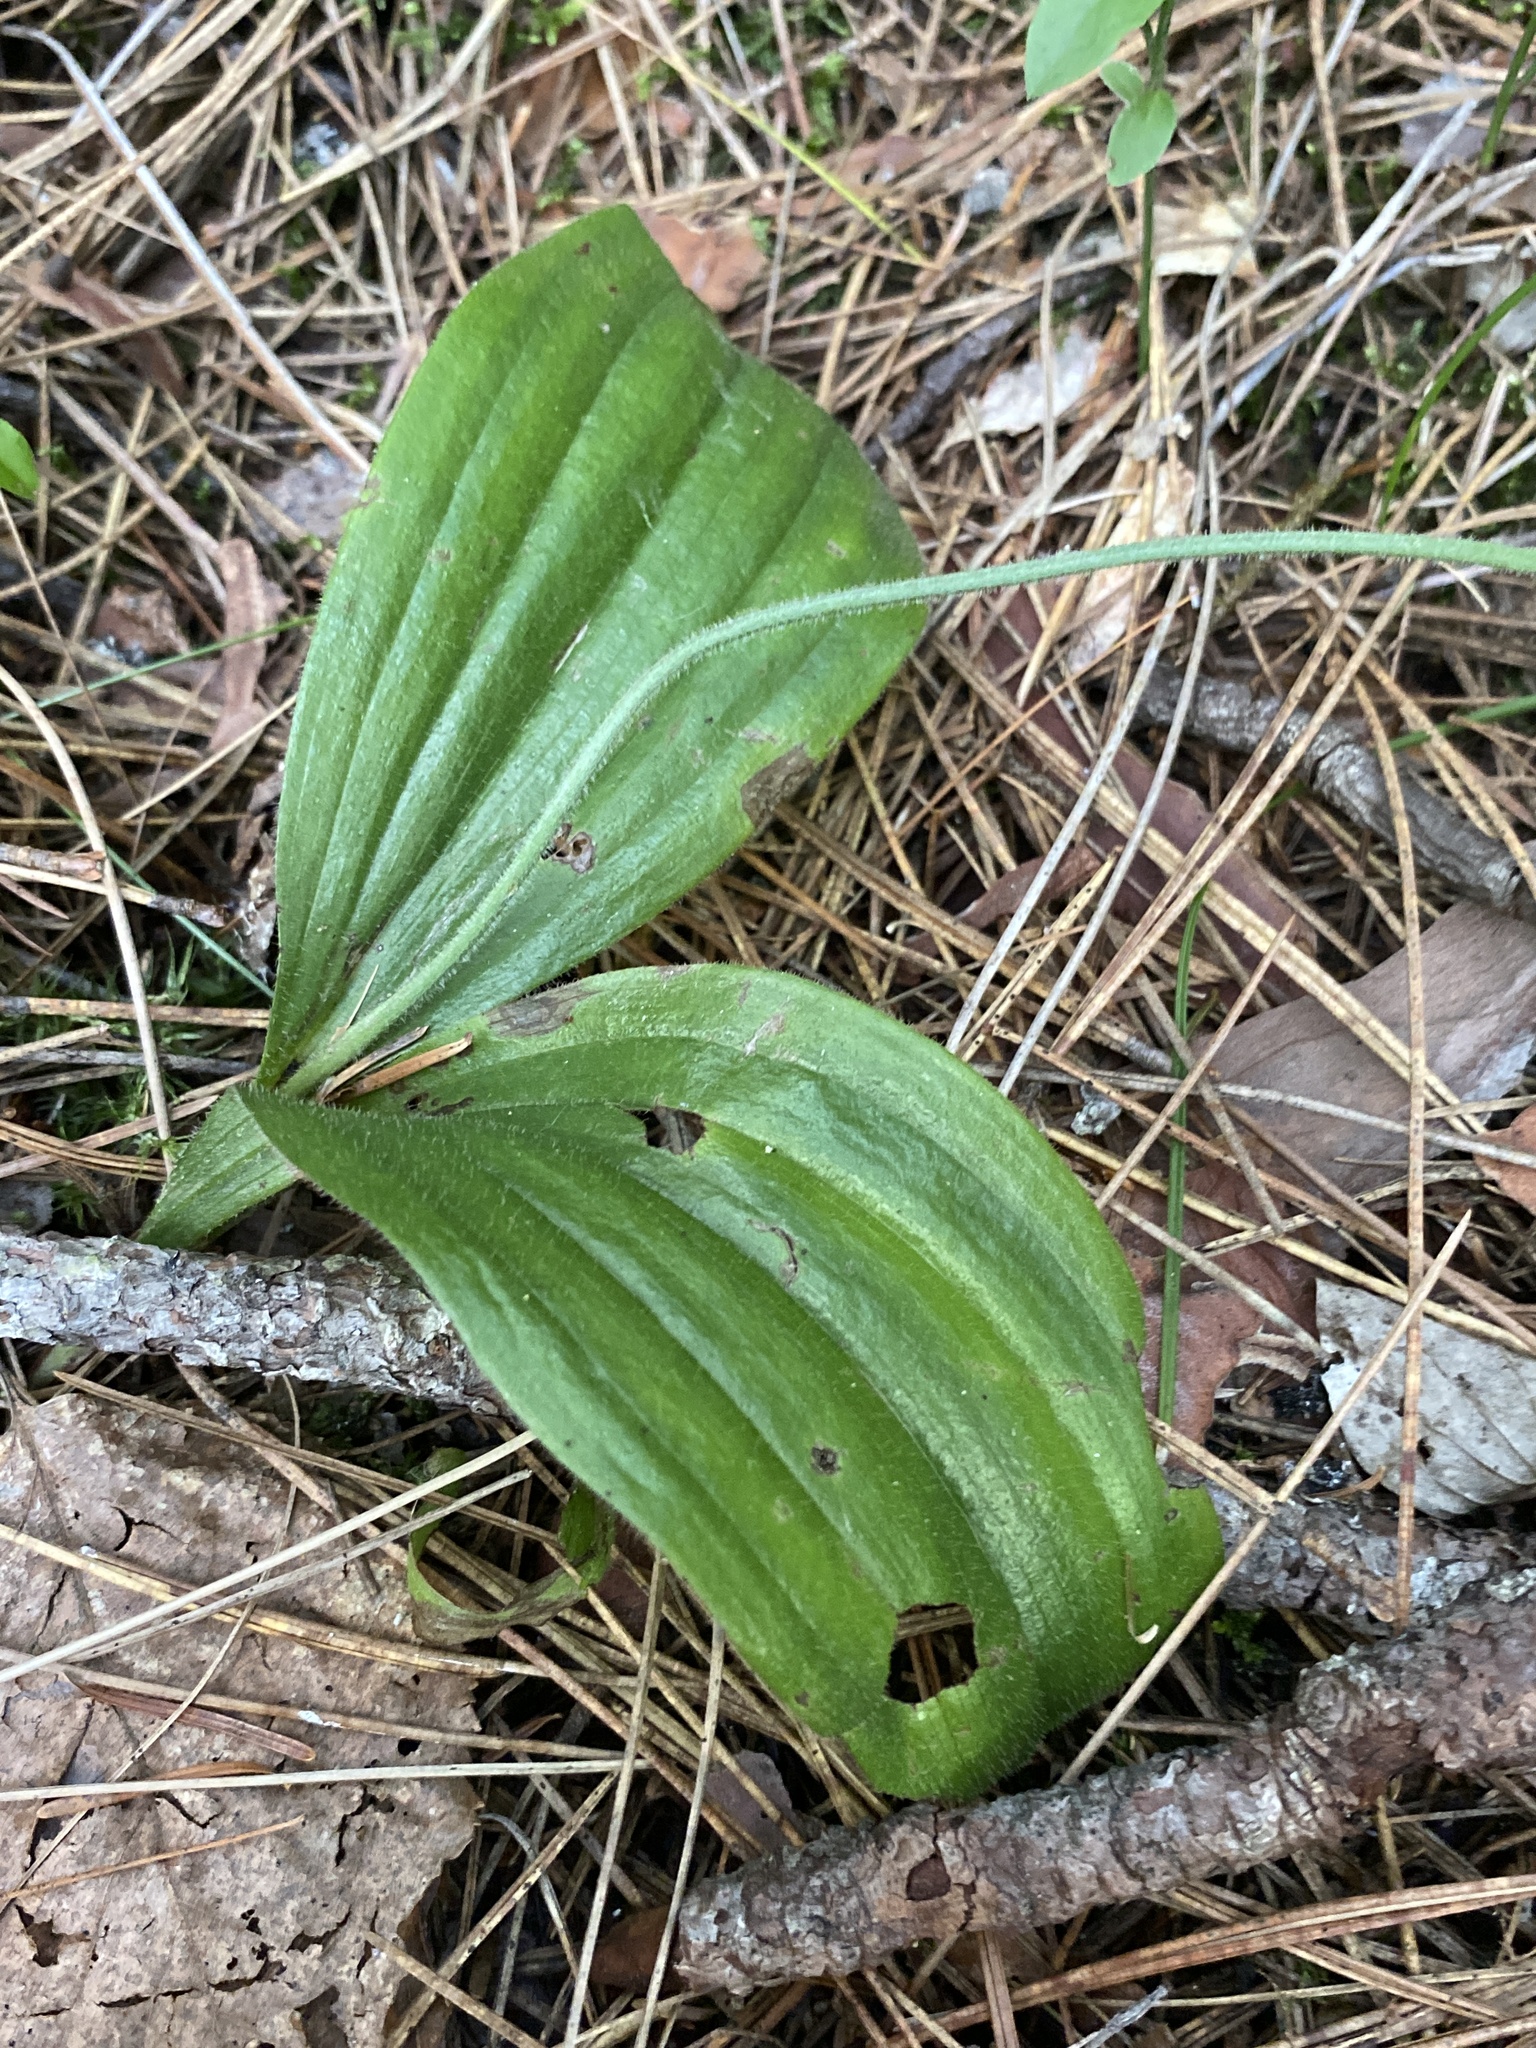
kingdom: Plantae
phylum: Tracheophyta
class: Liliopsida
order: Asparagales
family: Orchidaceae
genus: Cypripedium
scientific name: Cypripedium acaule
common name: Pink lady's-slipper
